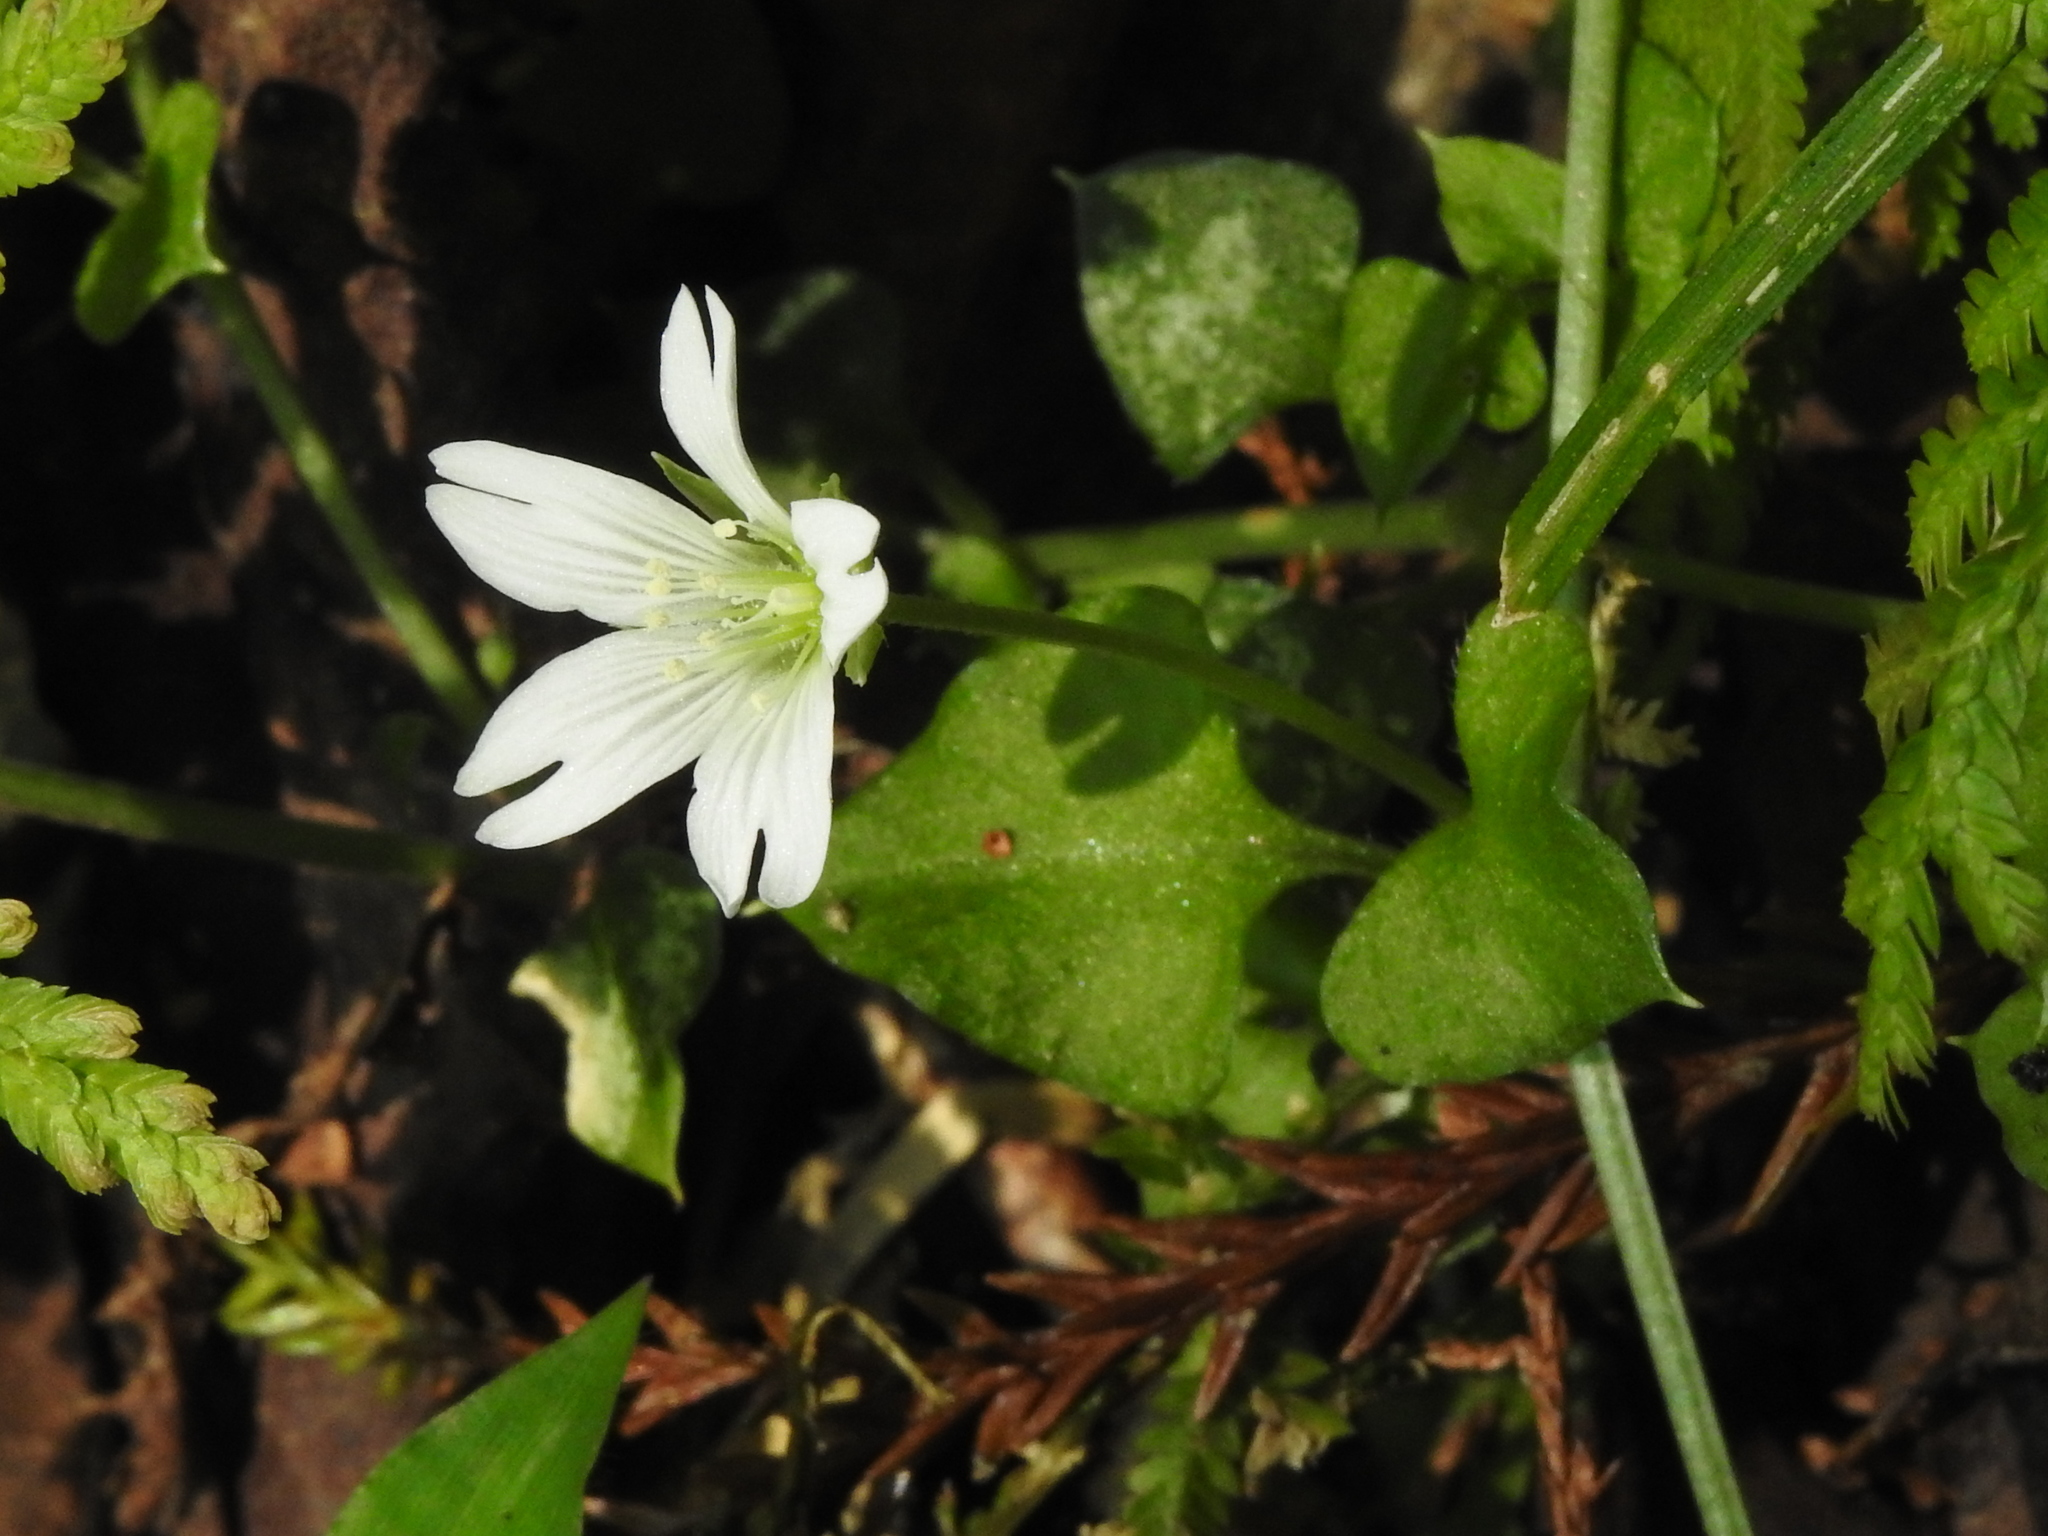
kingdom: Plantae
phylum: Tracheophyta
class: Magnoliopsida
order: Caryophyllales
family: Caryophyllaceae
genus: Nubelaria
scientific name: Nubelaria arisanensis
